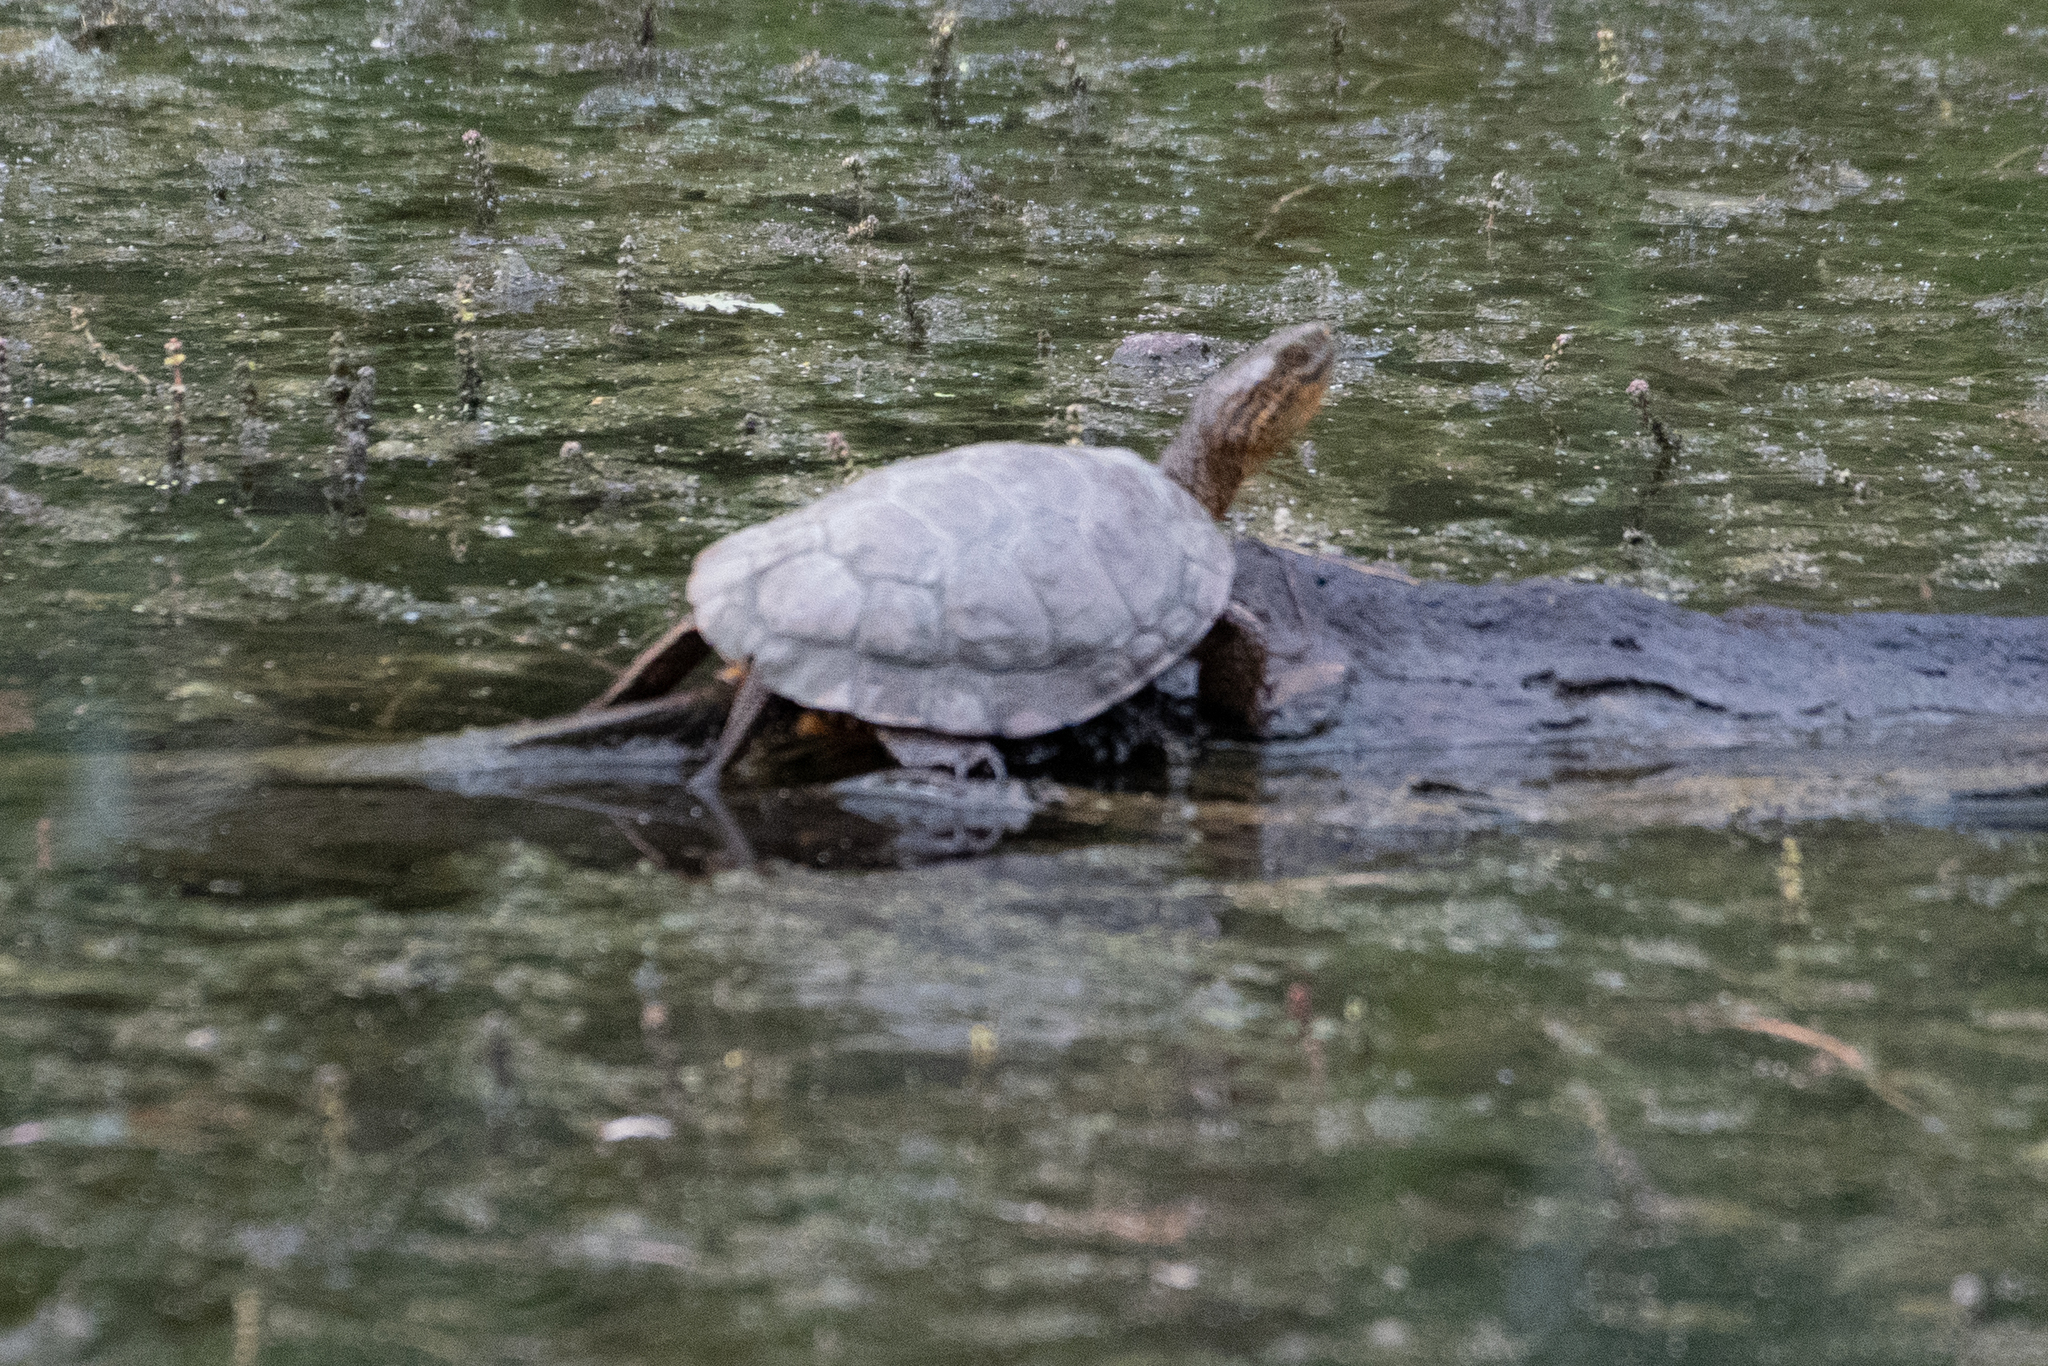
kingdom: Animalia
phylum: Chordata
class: Testudines
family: Emydidae
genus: Actinemys
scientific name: Actinemys marmorata
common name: Western pond turtle
